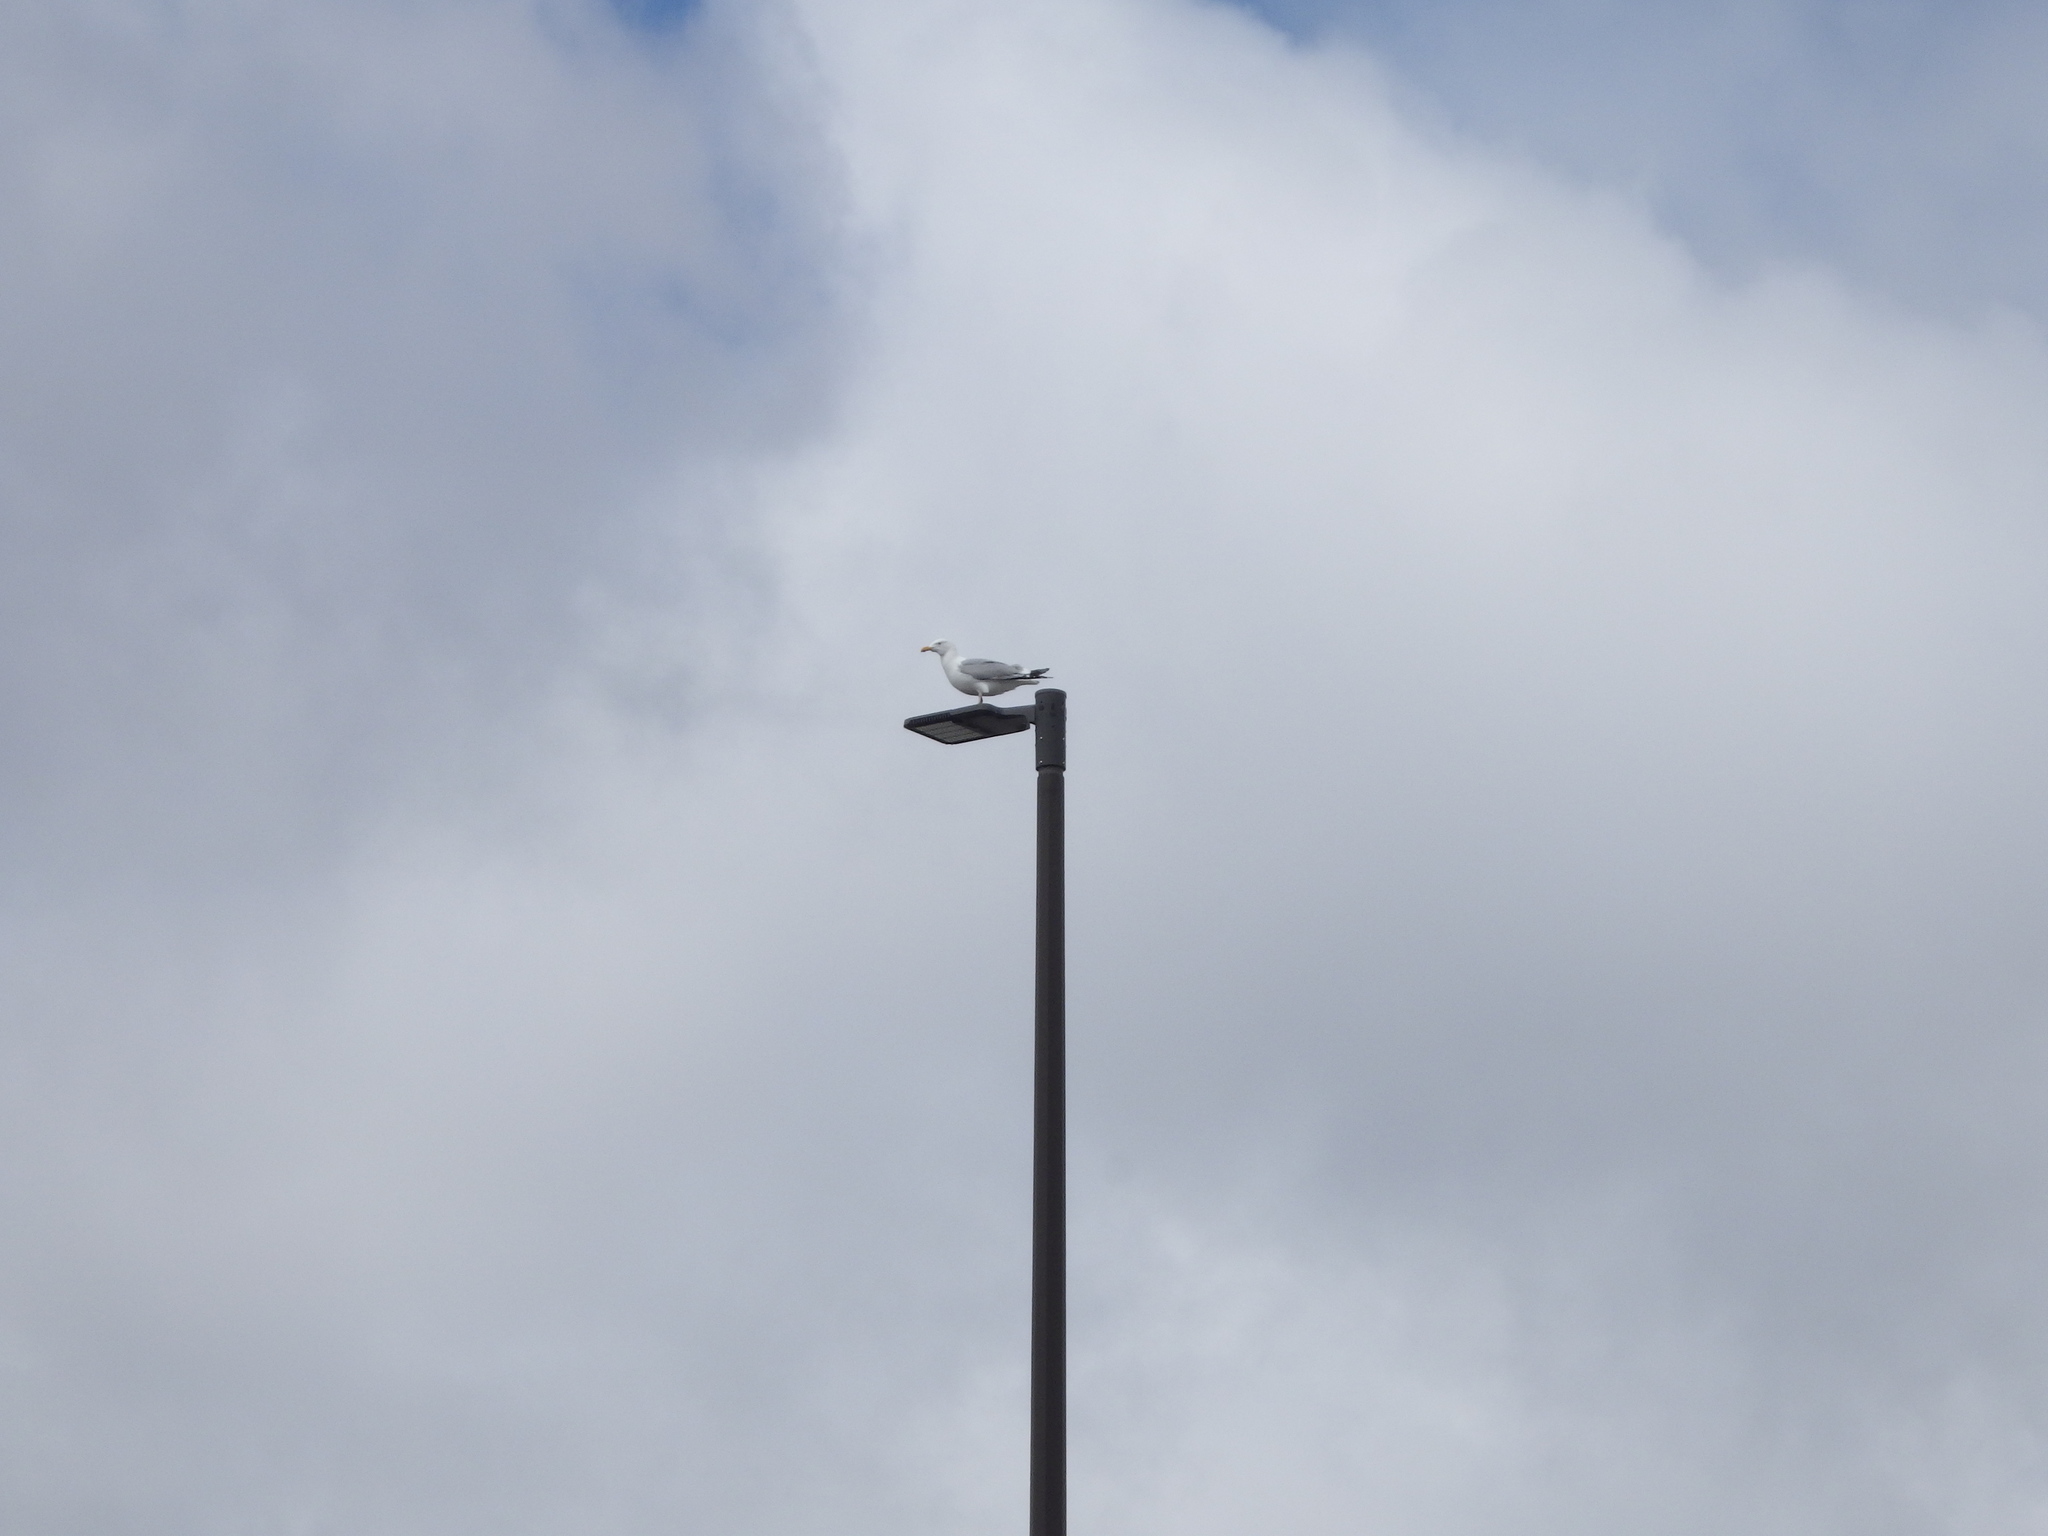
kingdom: Animalia
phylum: Chordata
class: Aves
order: Charadriiformes
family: Laridae
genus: Larus
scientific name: Larus argentatus
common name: Herring gull
